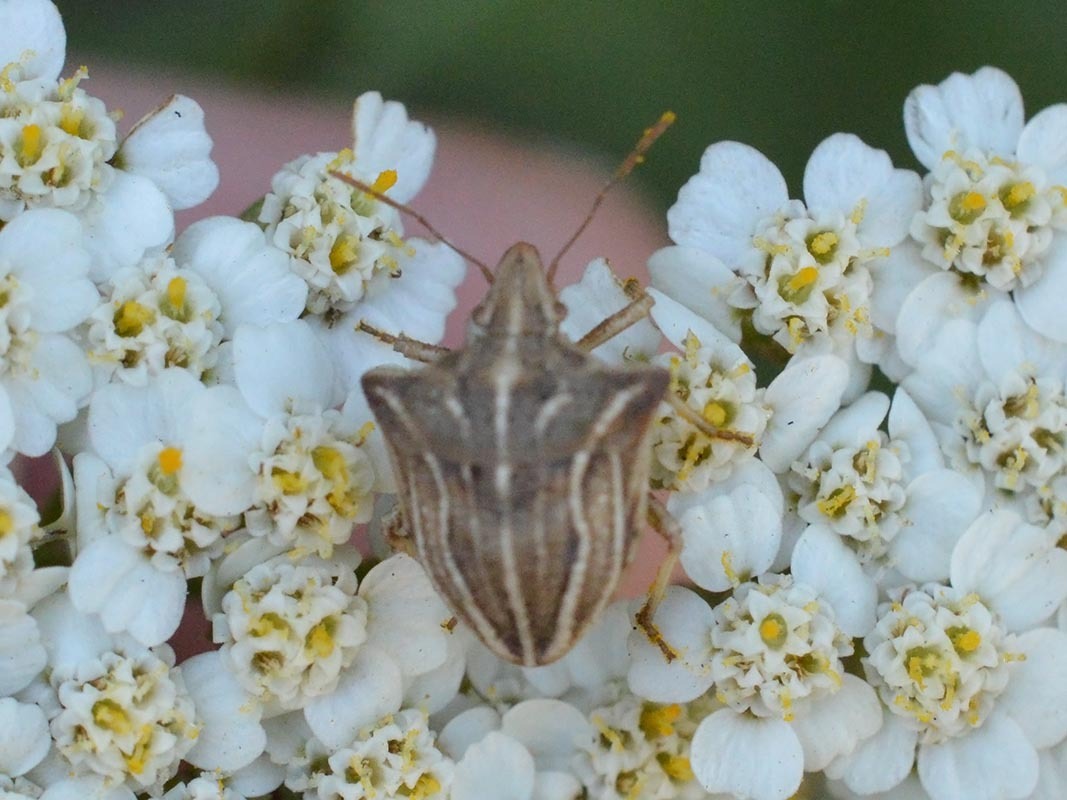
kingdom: Animalia
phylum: Arthropoda
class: Insecta
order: Hemiptera
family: Pentatomidae
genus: Ancyrosoma
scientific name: Ancyrosoma leucogrammes
